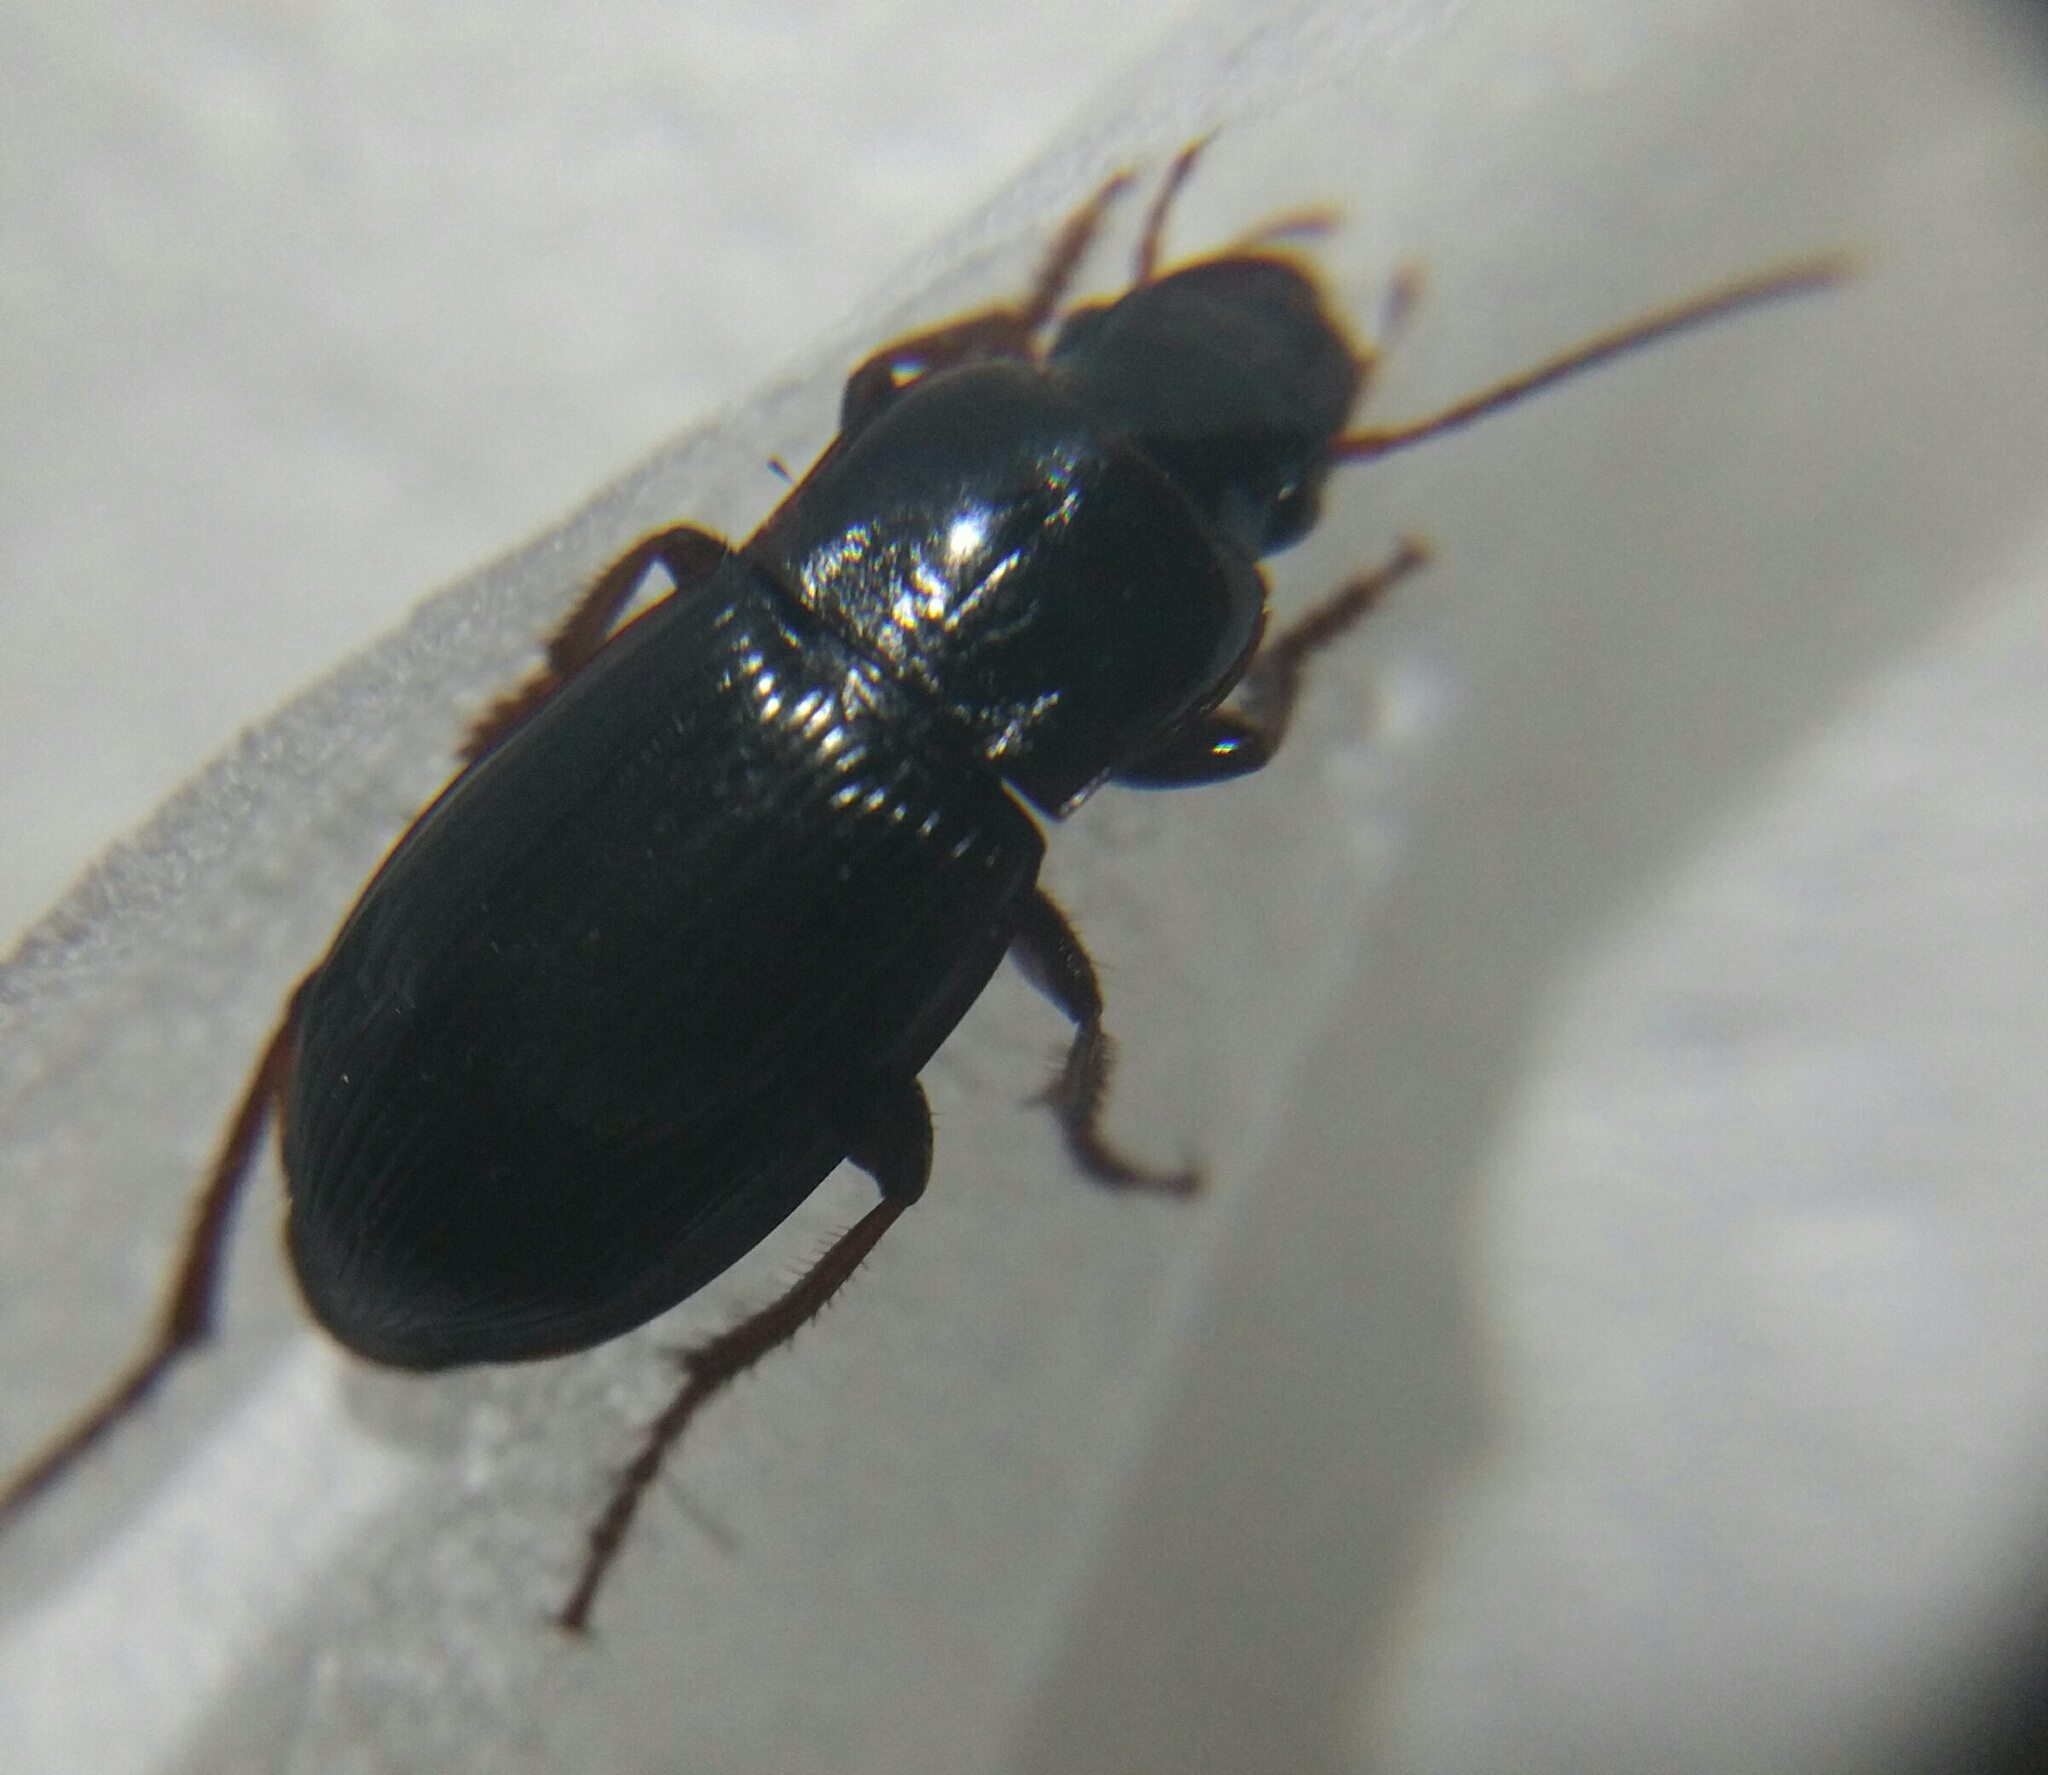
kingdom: Animalia
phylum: Arthropoda
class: Insecta
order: Coleoptera
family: Carabidae
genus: Harpalus
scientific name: Harpalus atratus
